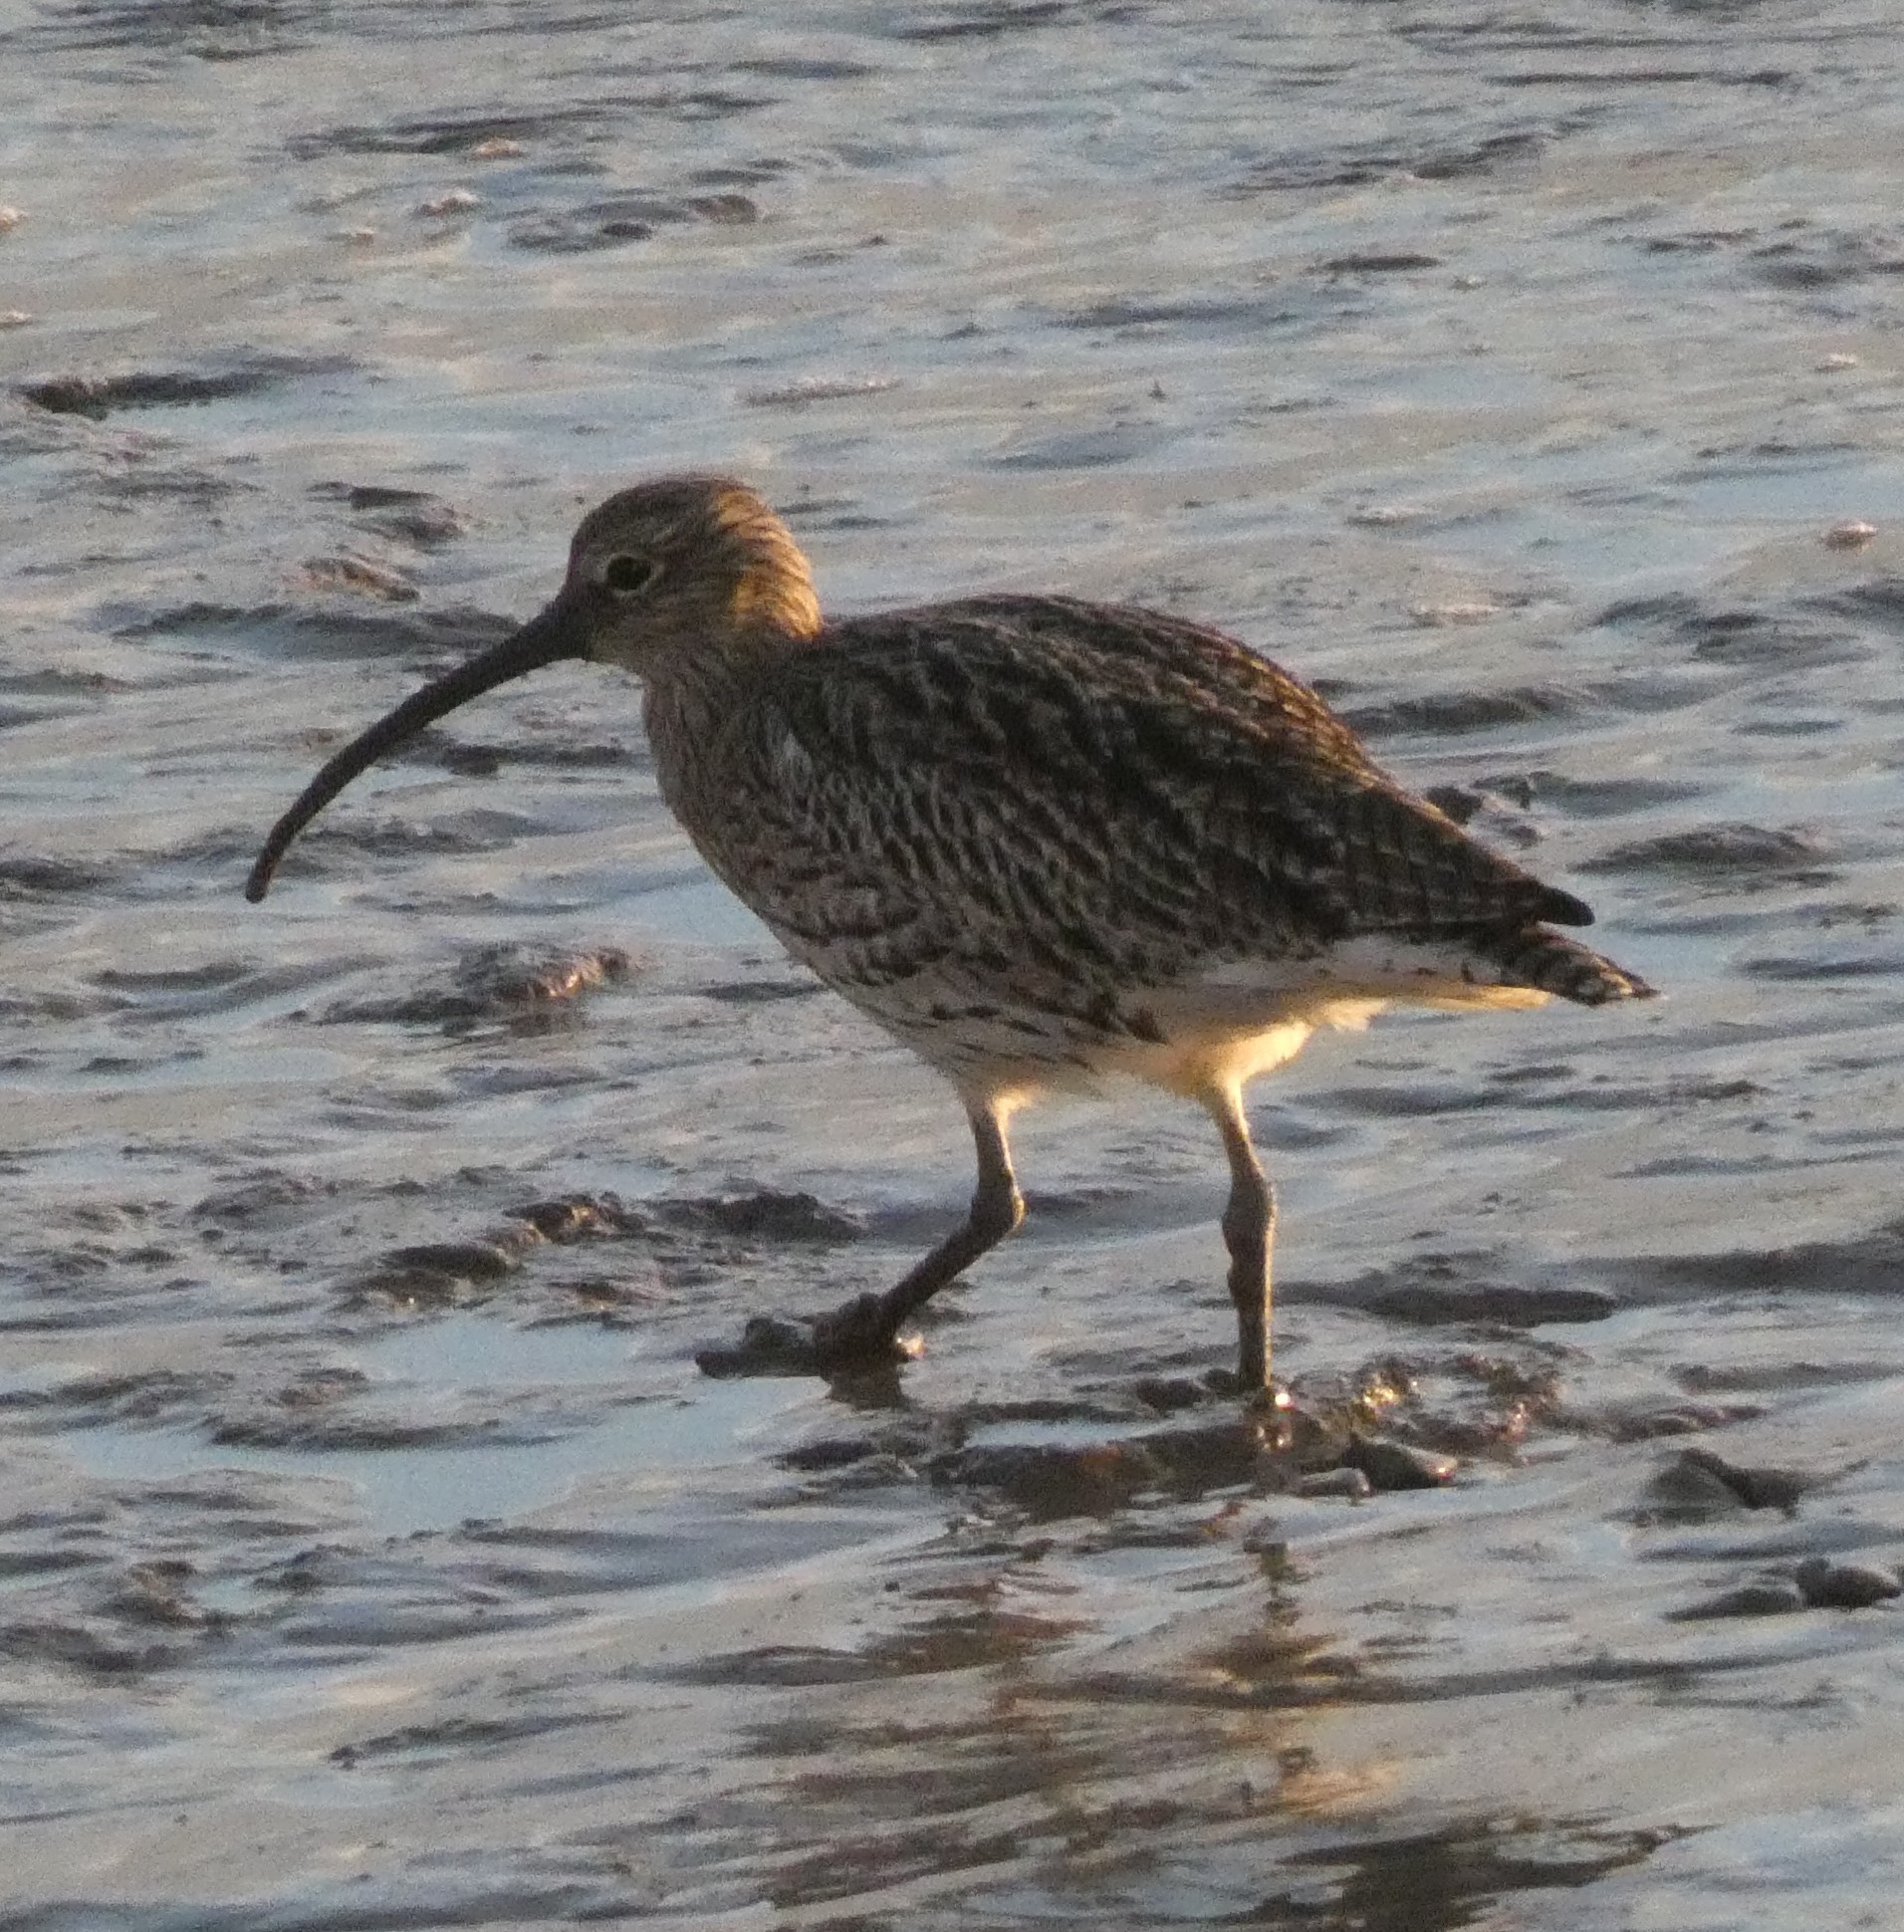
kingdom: Animalia
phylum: Chordata
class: Aves
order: Charadriiformes
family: Scolopacidae
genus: Numenius
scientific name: Numenius arquata
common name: Eurasian curlew
